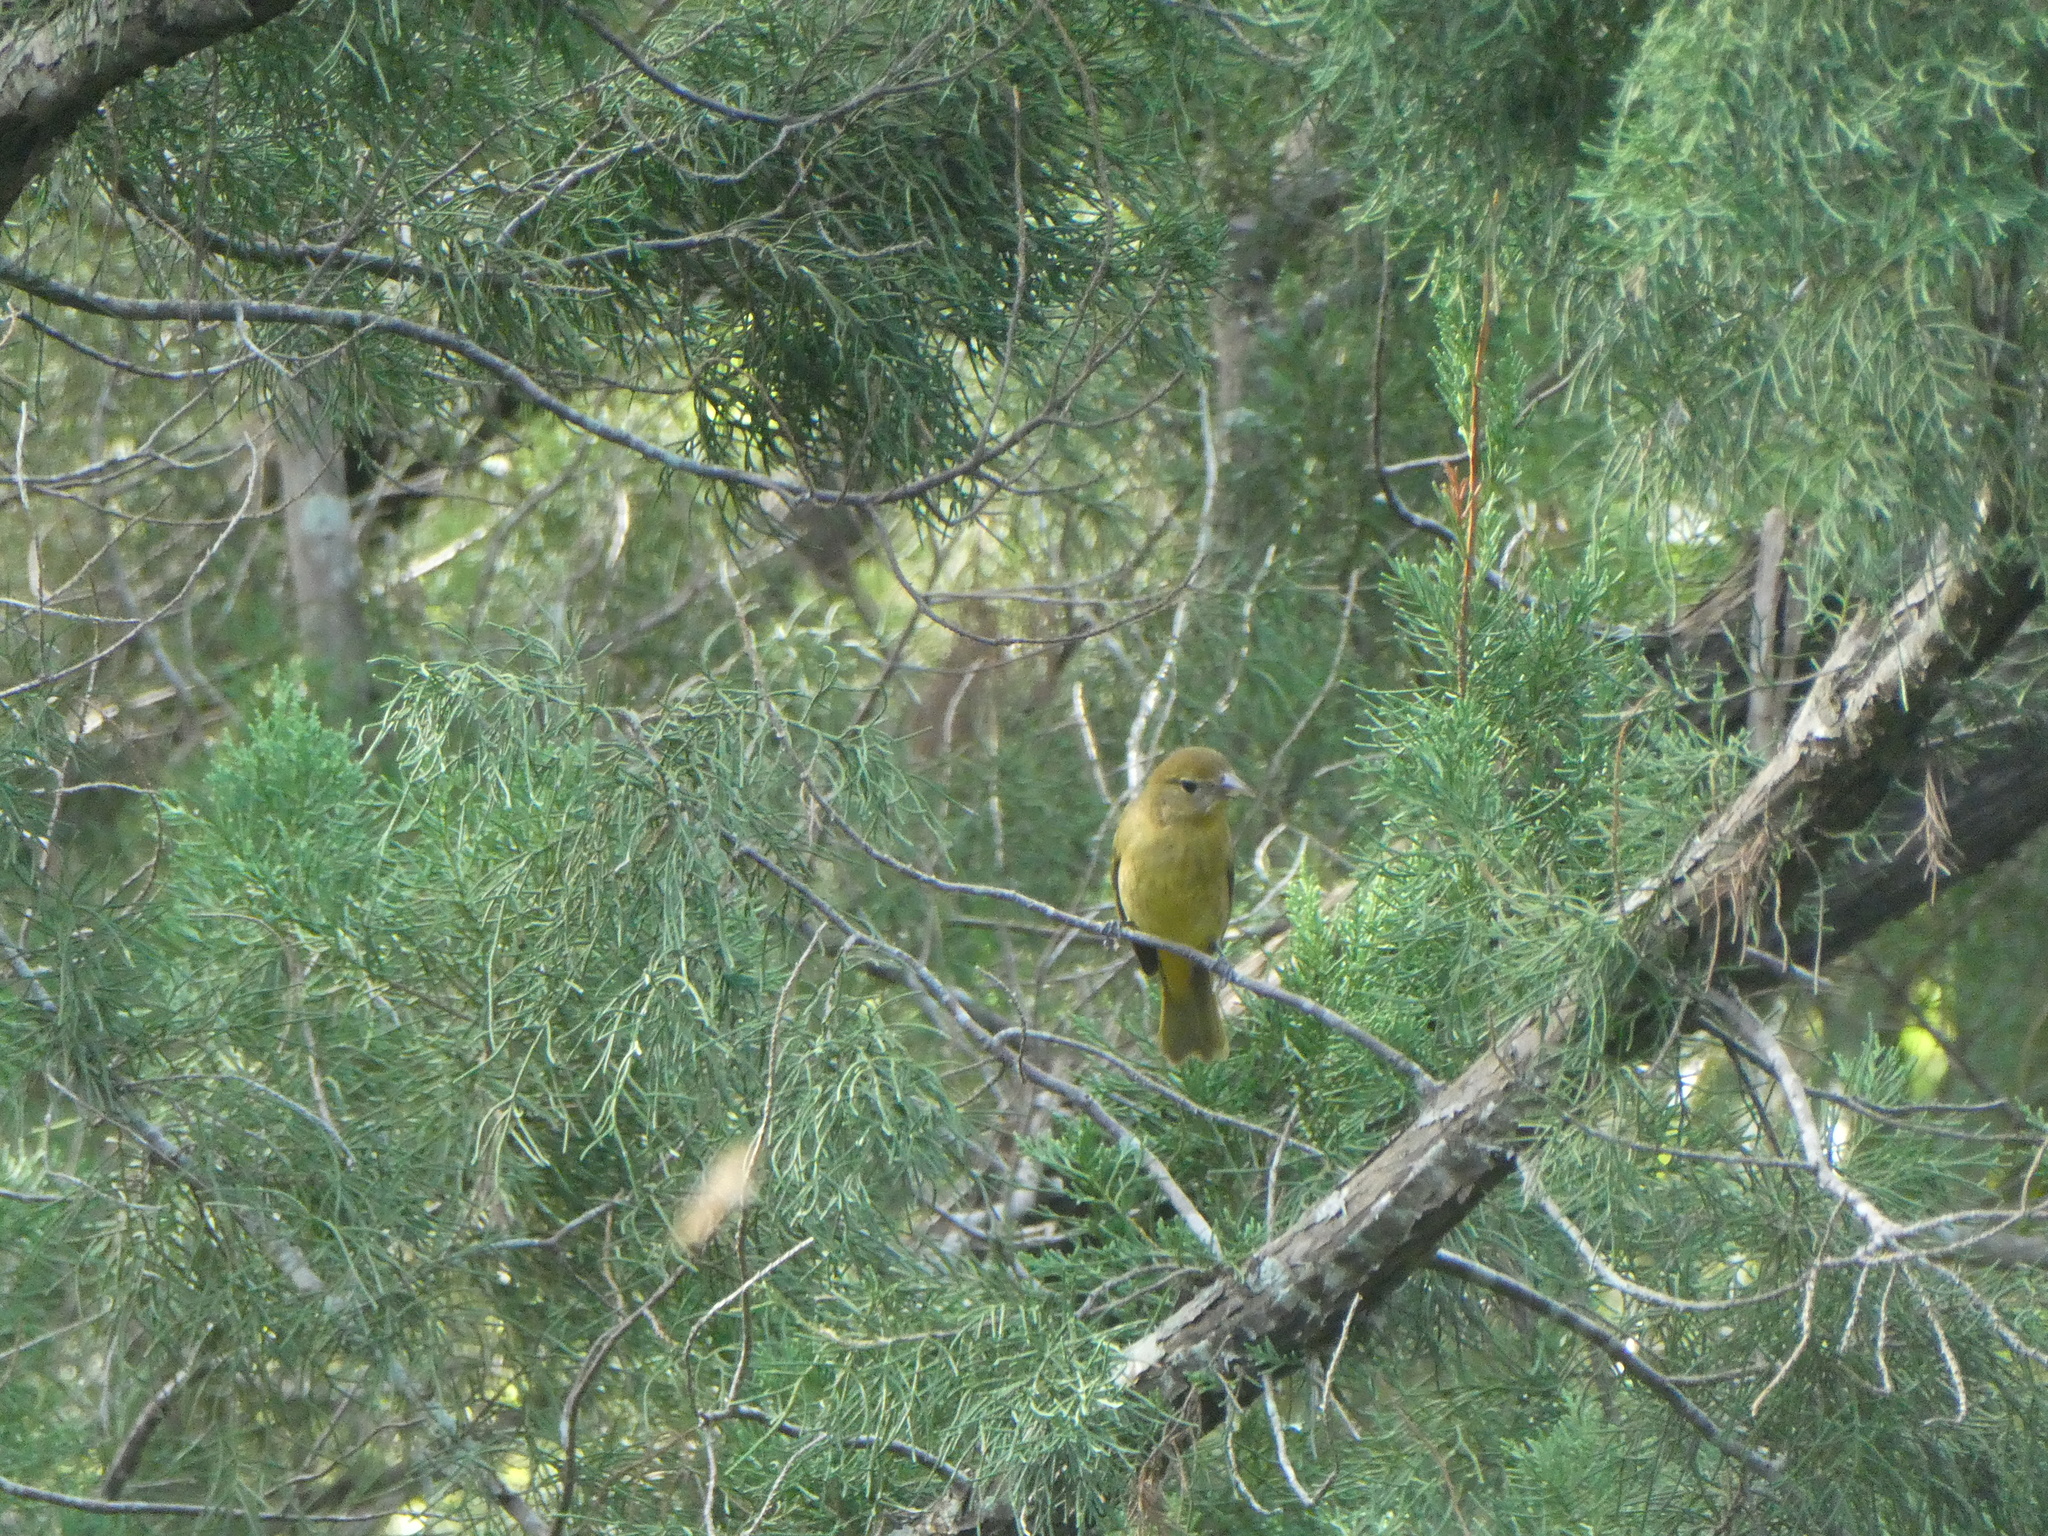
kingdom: Animalia
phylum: Chordata
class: Aves
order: Passeriformes
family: Cardinalidae
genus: Piranga
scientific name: Piranga rubra
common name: Summer tanager
